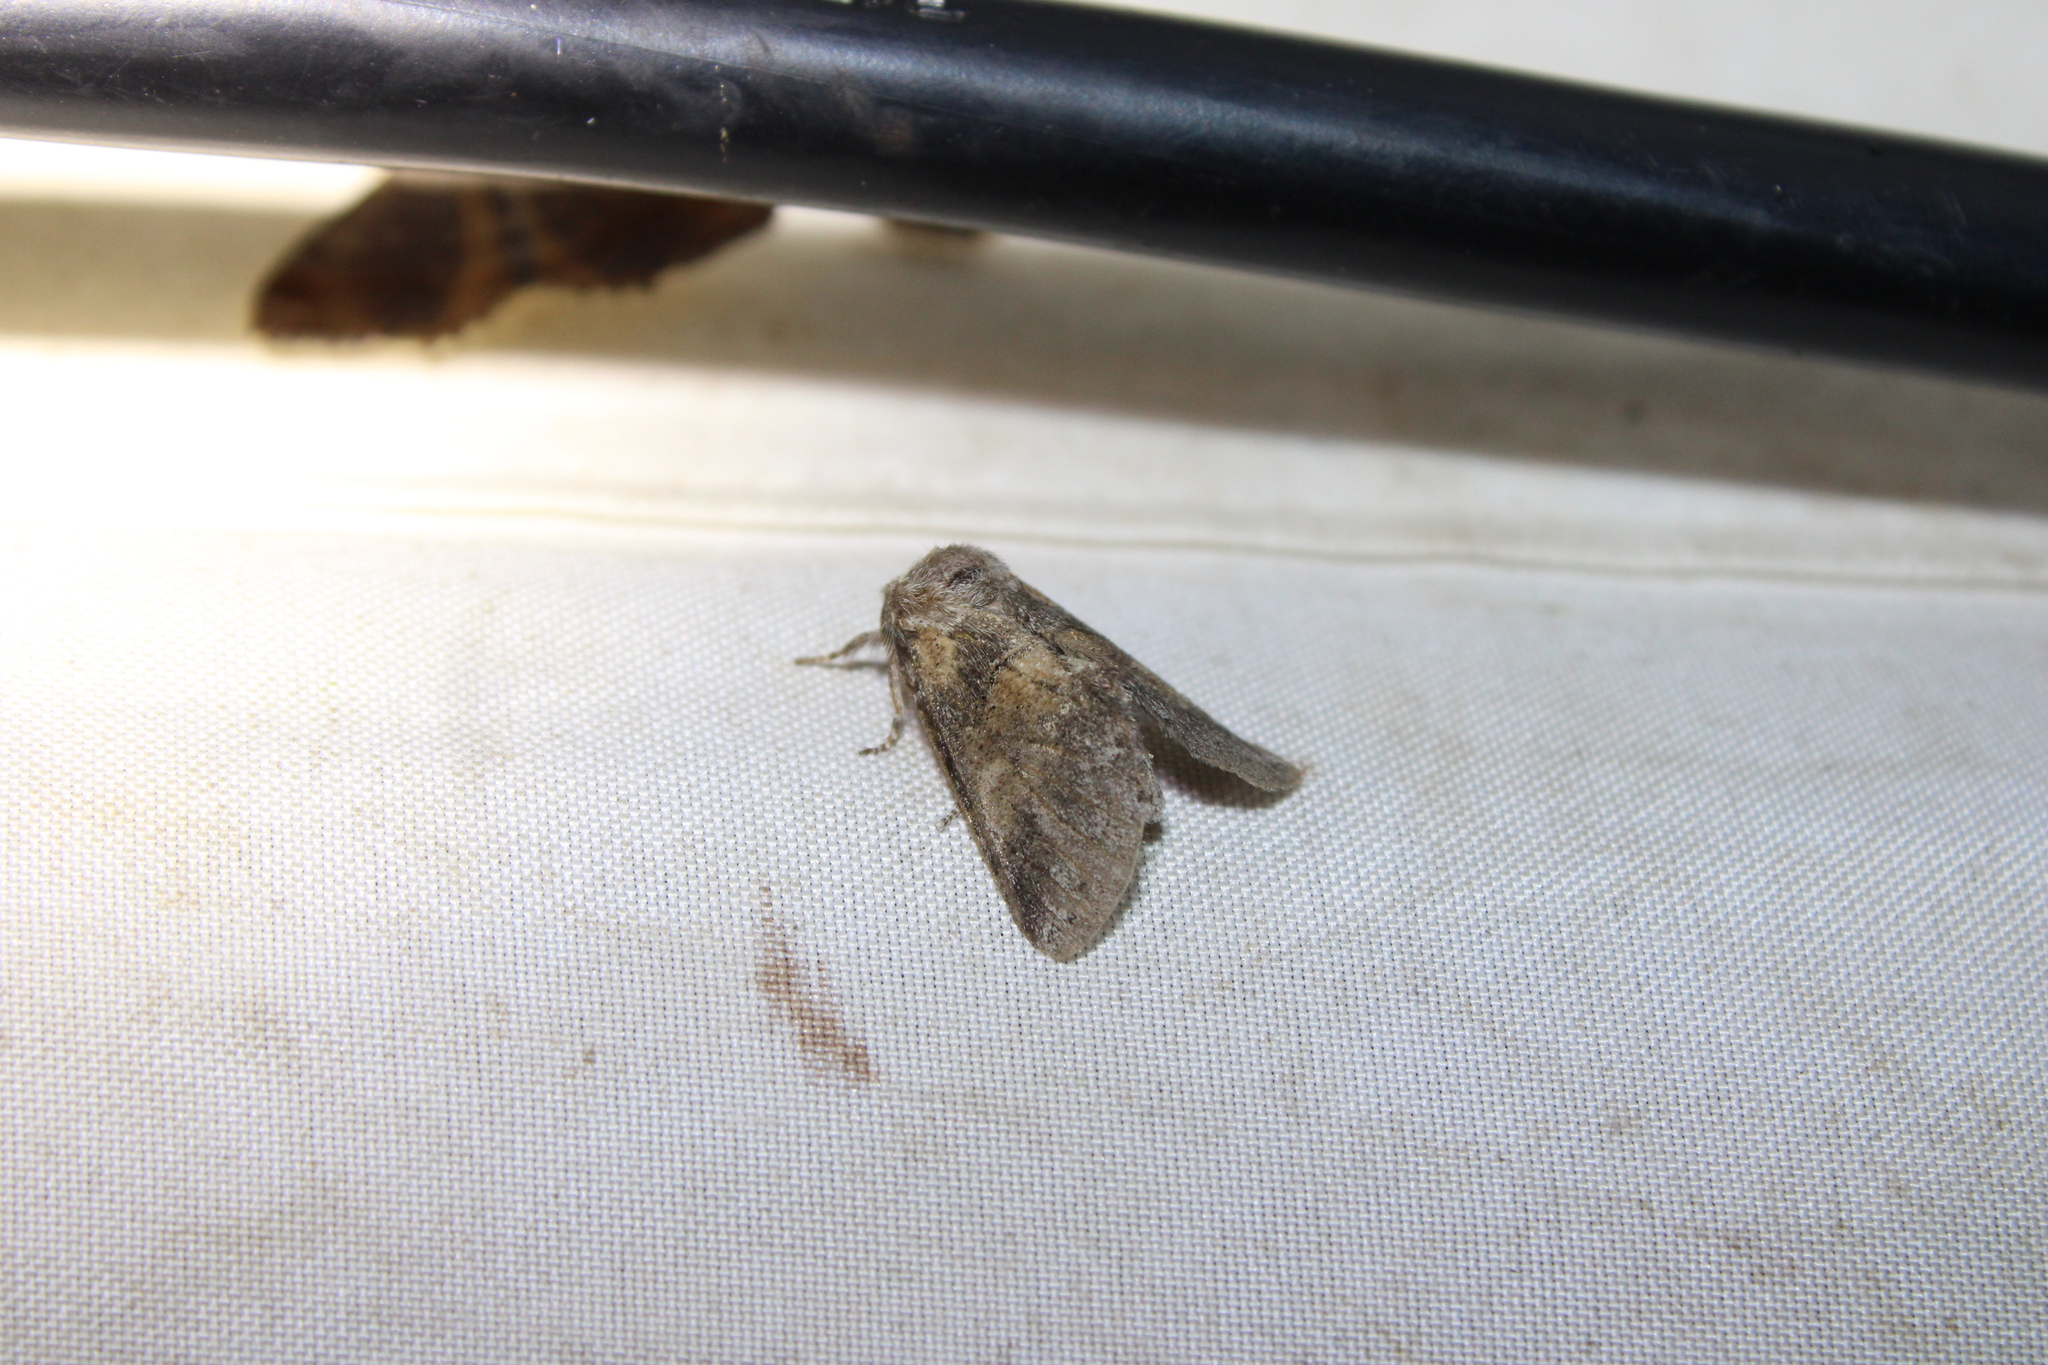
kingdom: Animalia
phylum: Arthropoda
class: Insecta
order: Lepidoptera
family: Notodontidae
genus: Gluphisia
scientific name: Gluphisia septentrionis
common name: Common gluphisia
